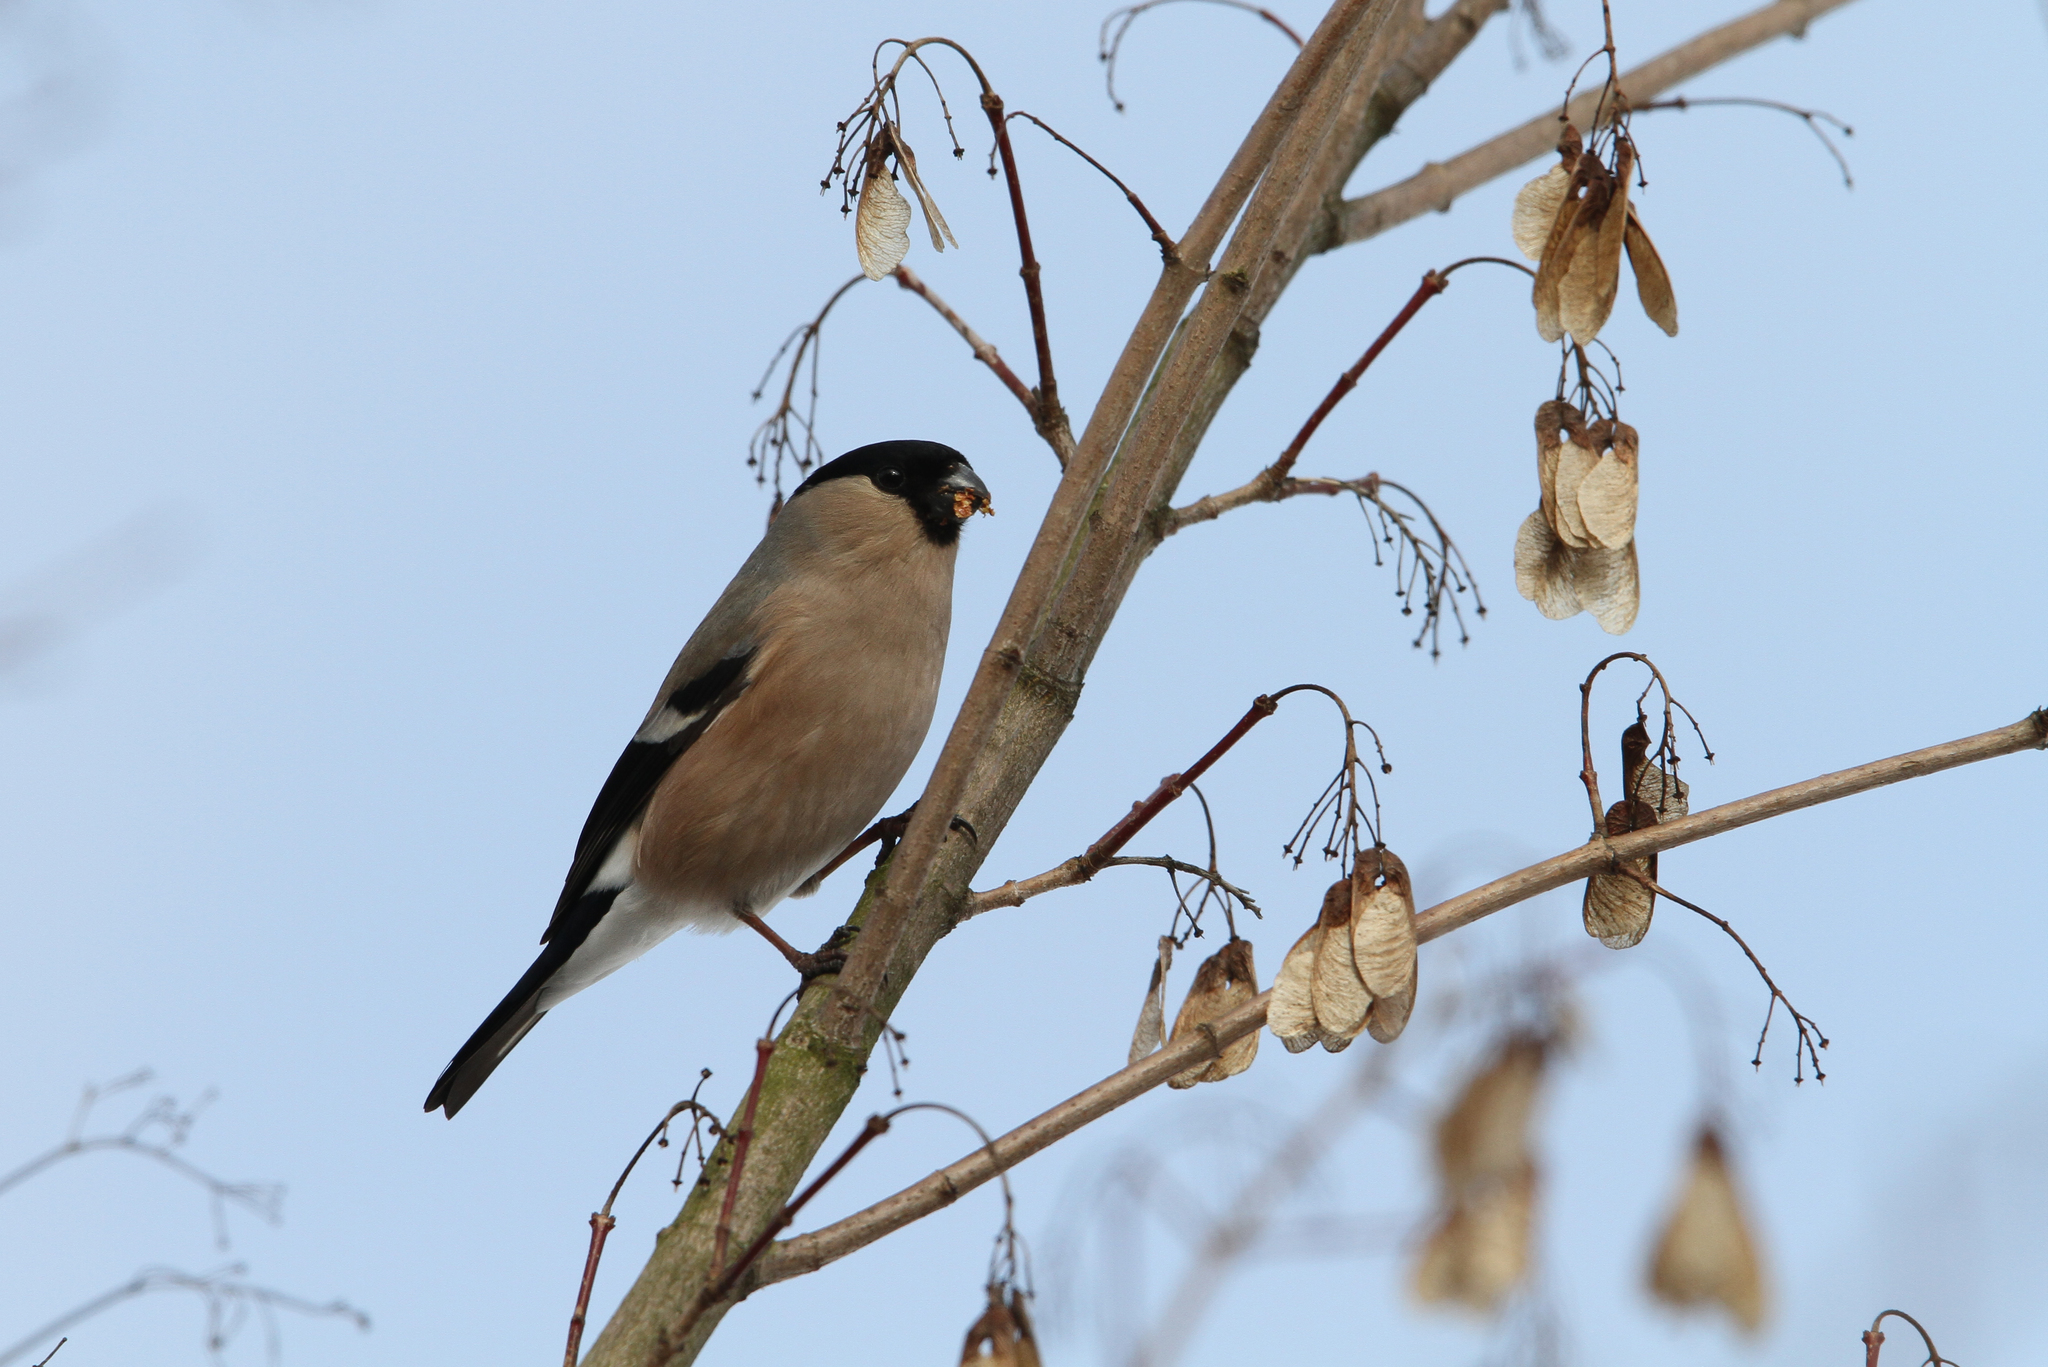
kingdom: Animalia
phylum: Chordata
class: Aves
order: Passeriformes
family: Fringillidae
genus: Pyrrhula
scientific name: Pyrrhula pyrrhula
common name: Eurasian bullfinch
